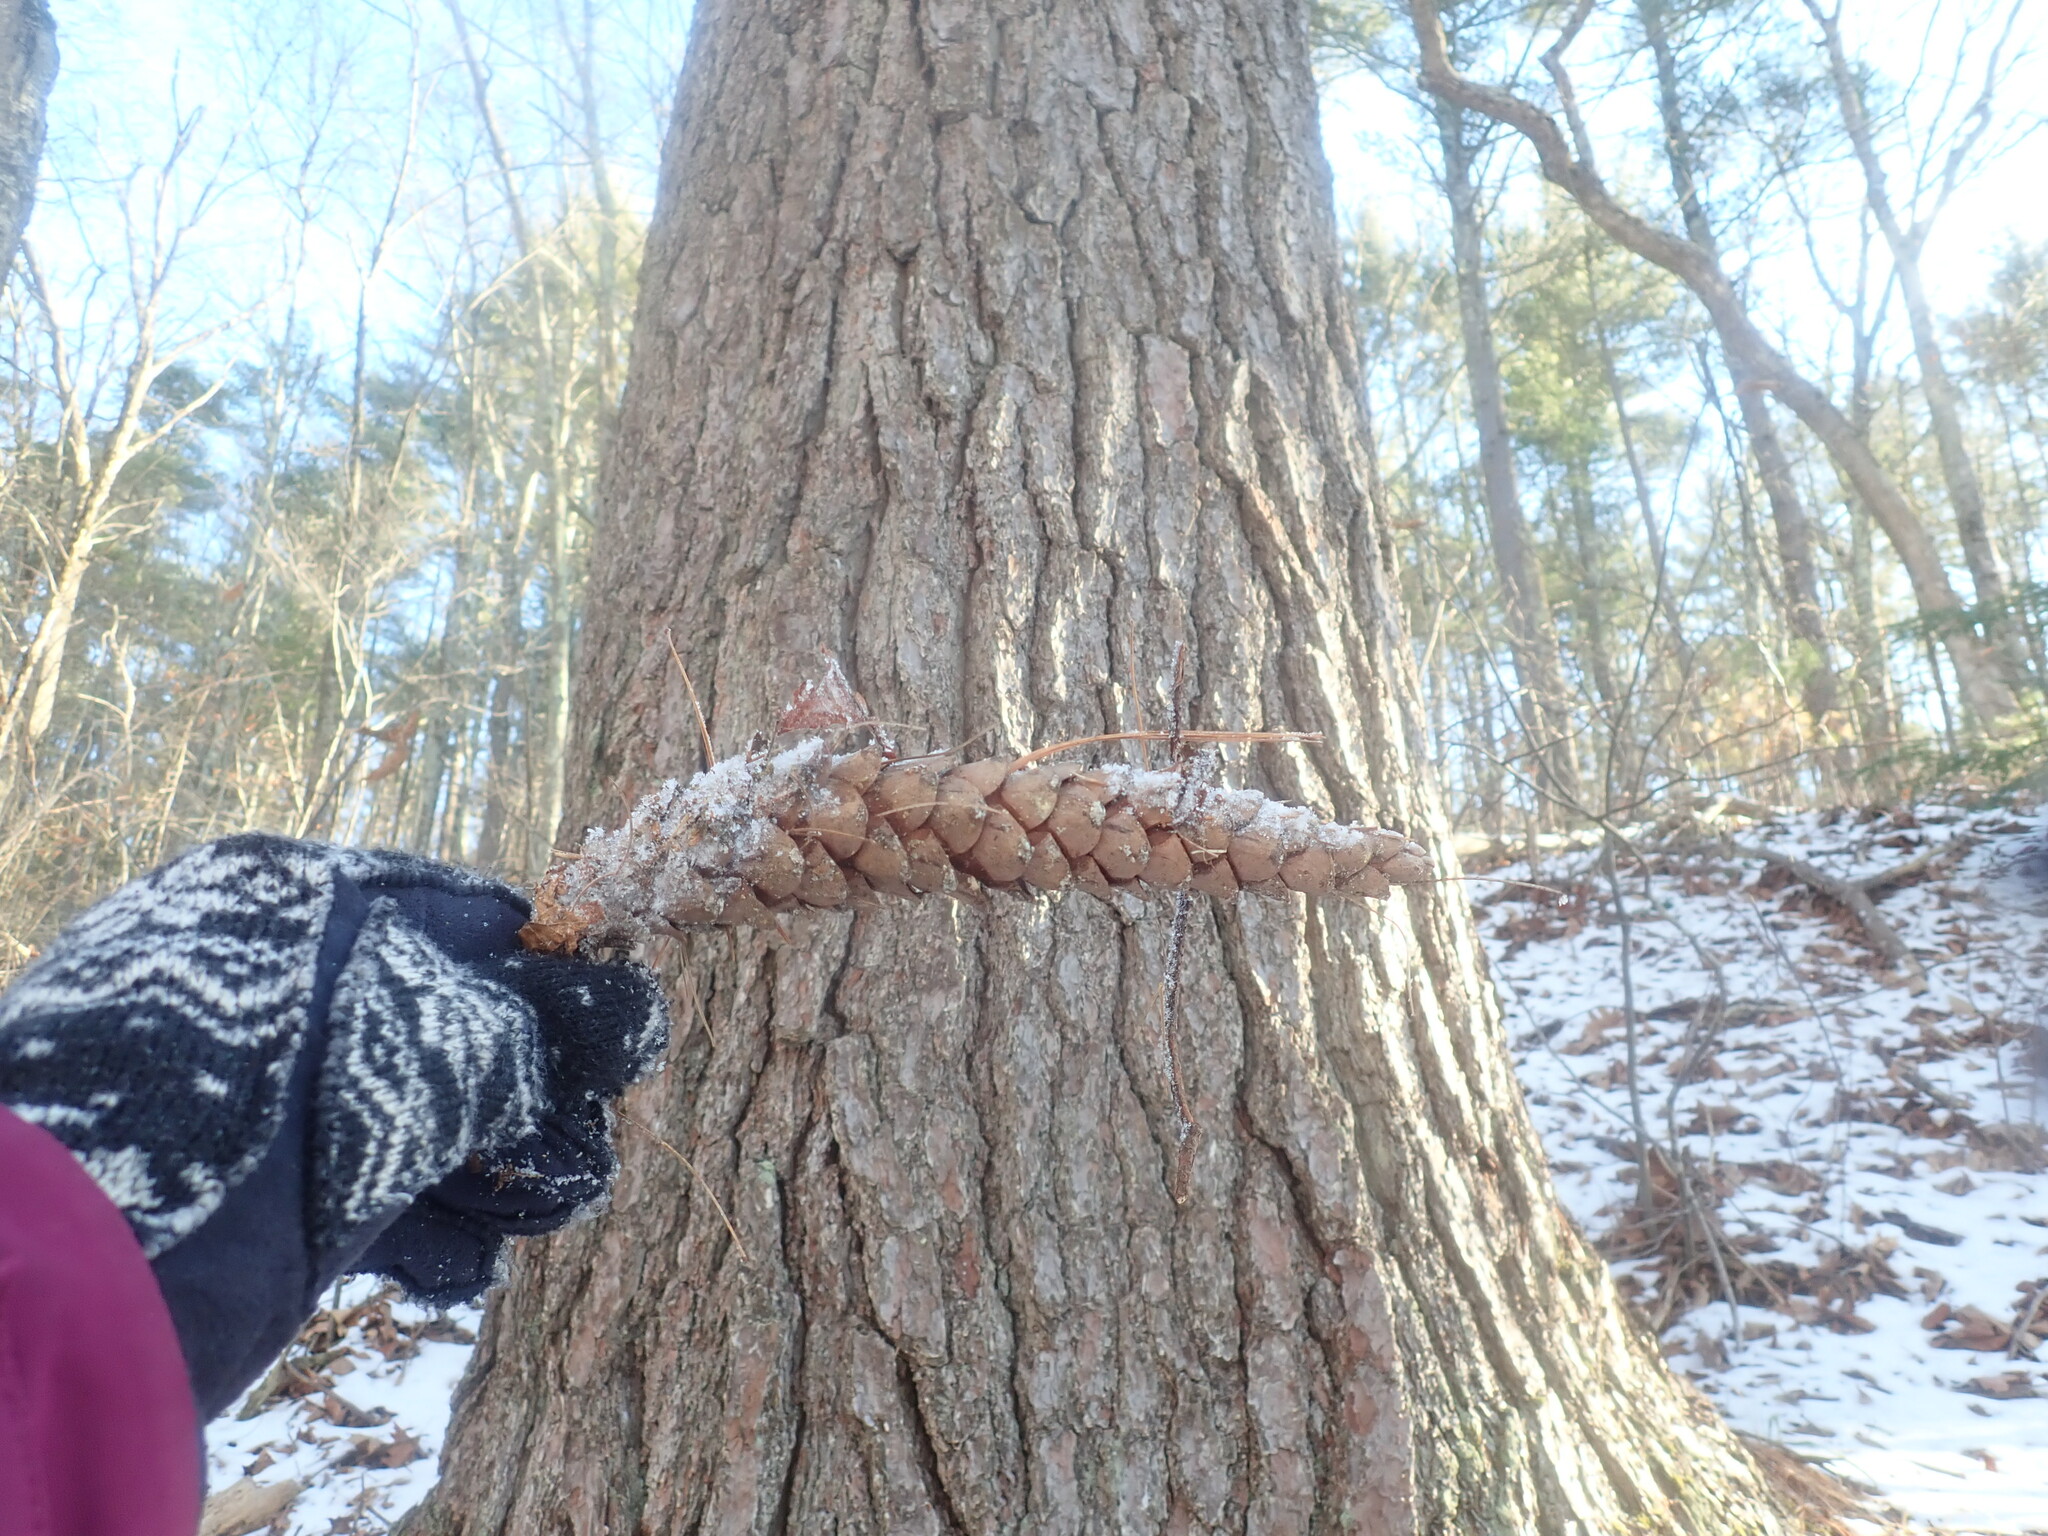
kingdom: Plantae
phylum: Tracheophyta
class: Pinopsida
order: Pinales
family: Pinaceae
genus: Pinus
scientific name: Pinus strobus
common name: Weymouth pine
